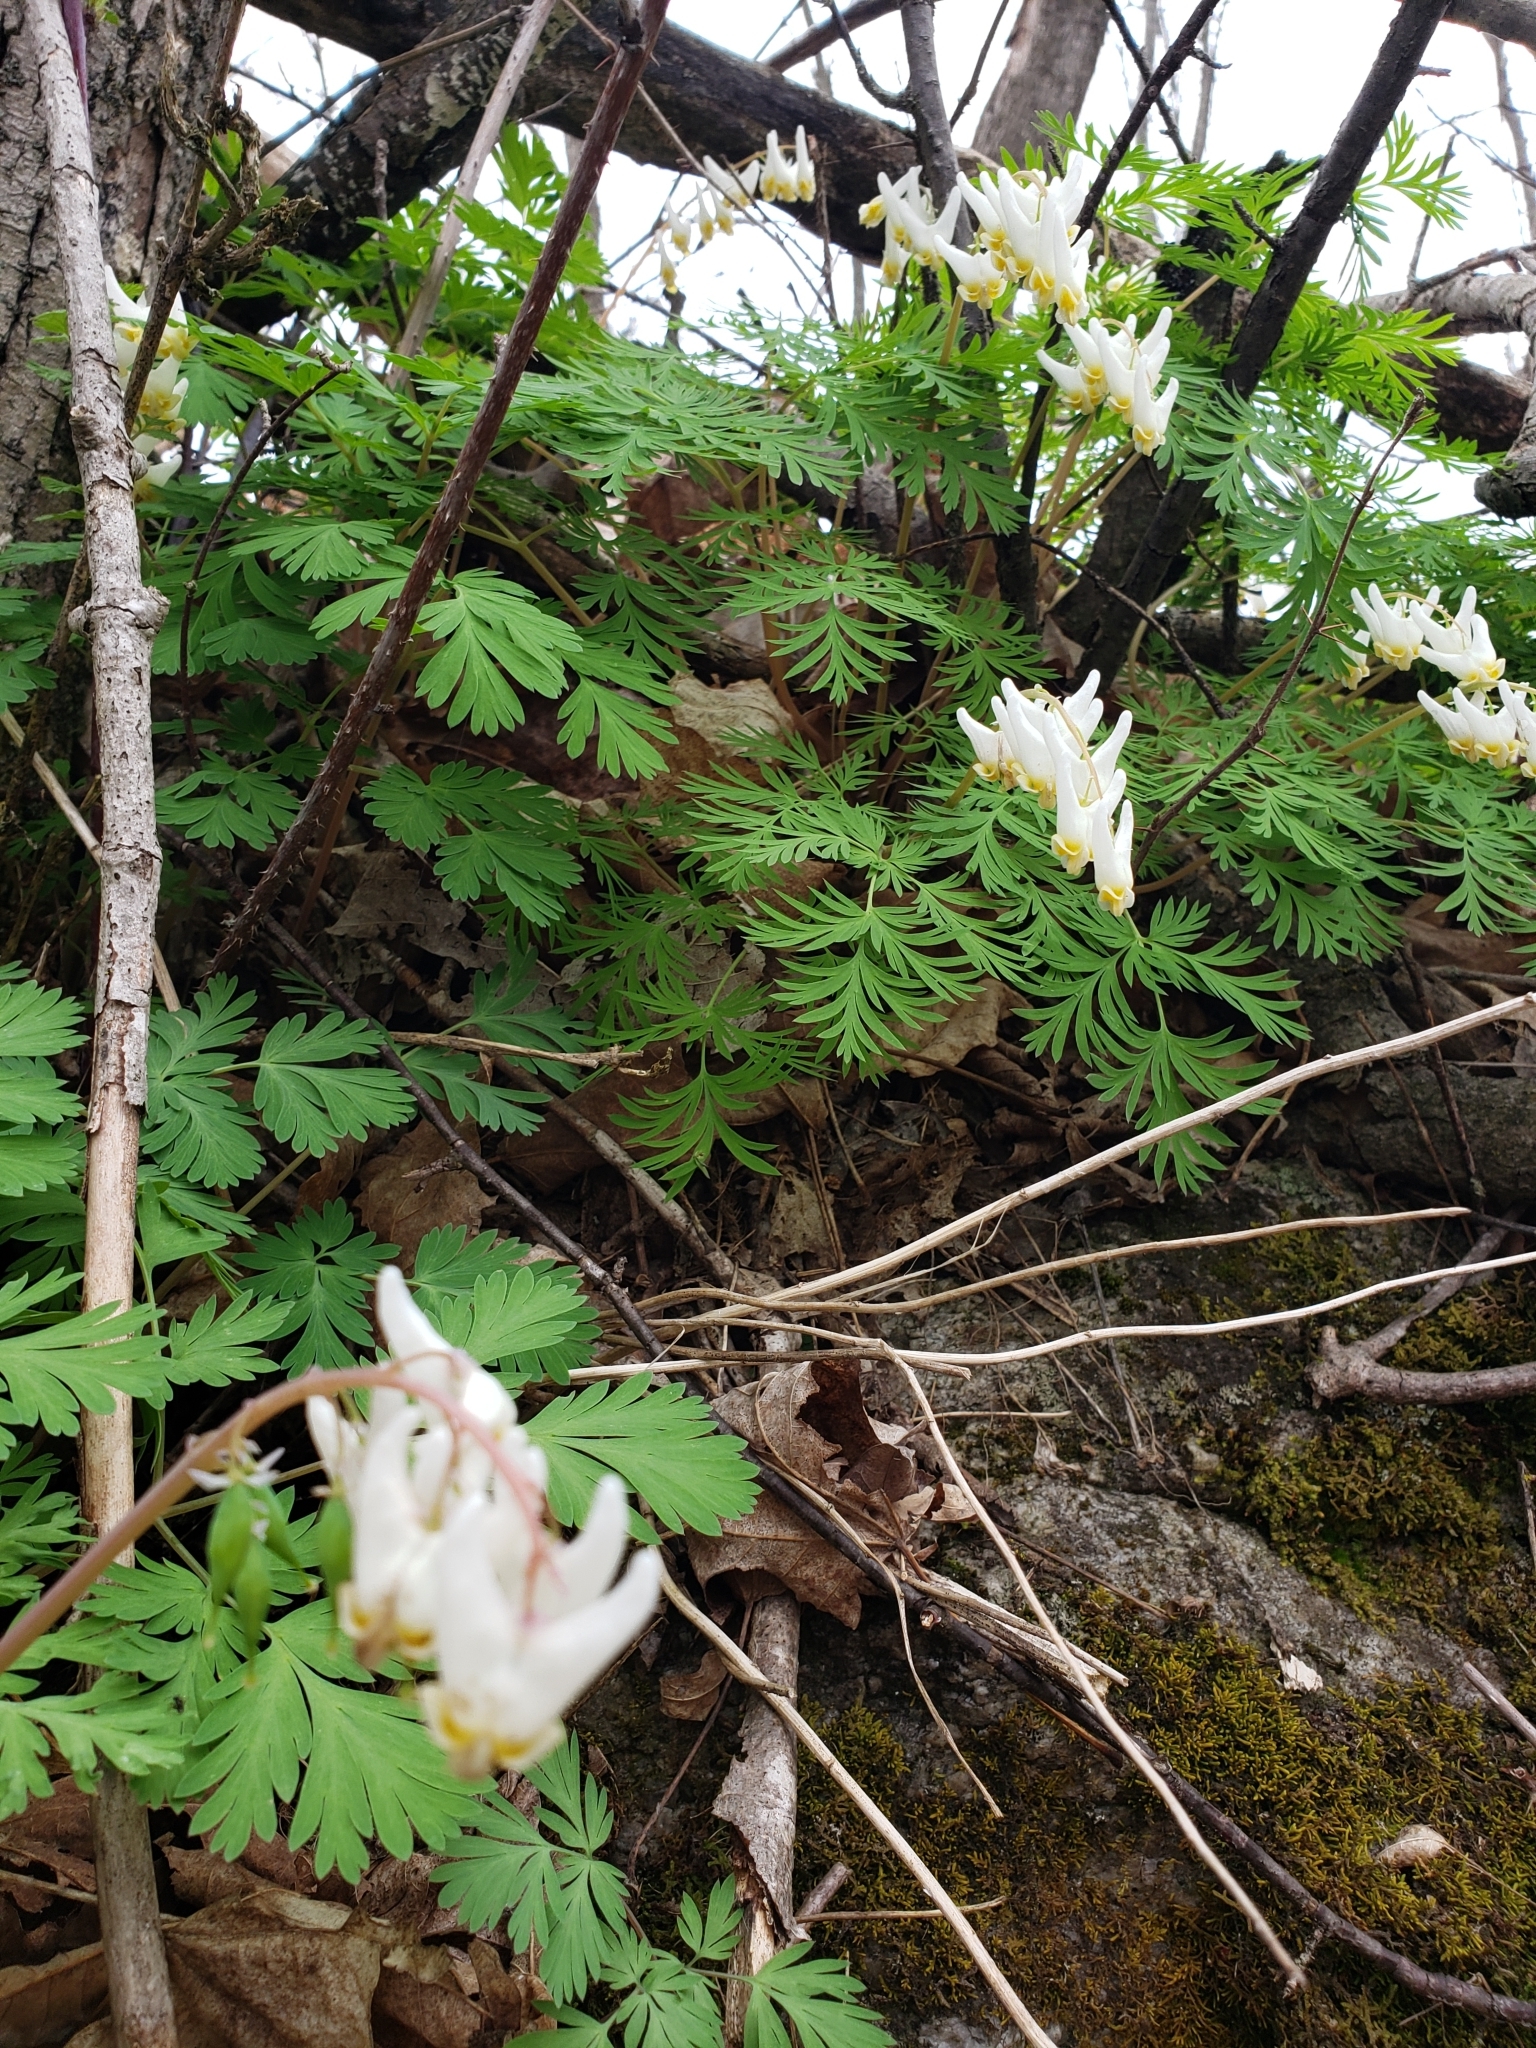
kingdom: Plantae
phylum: Tracheophyta
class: Magnoliopsida
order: Ranunculales
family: Papaveraceae
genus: Dicentra
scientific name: Dicentra cucullaria
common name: Dutchman's breeches
